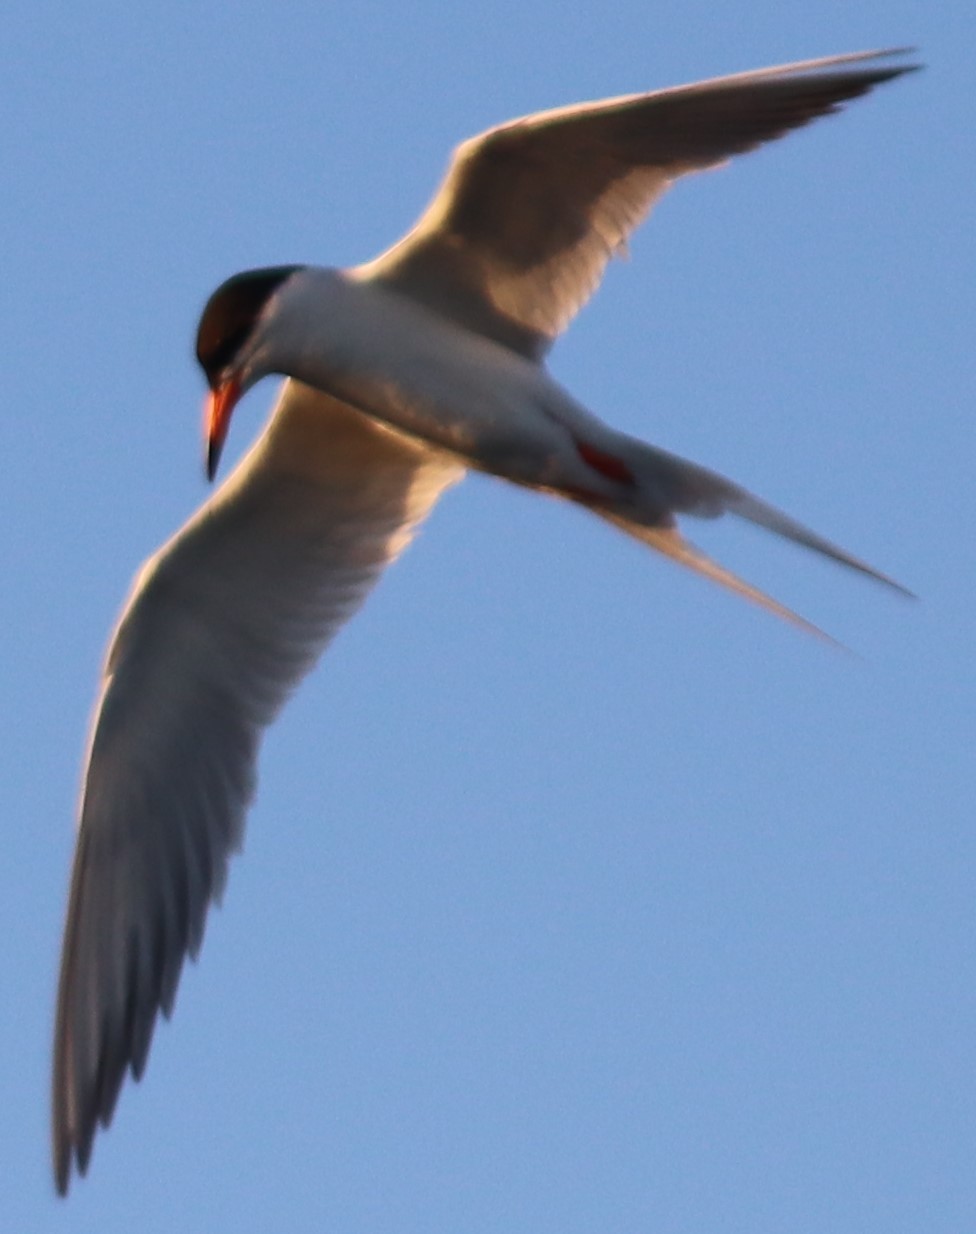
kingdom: Animalia
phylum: Chordata
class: Aves
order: Charadriiformes
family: Laridae
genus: Sterna
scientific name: Sterna forsteri
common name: Forster's tern
